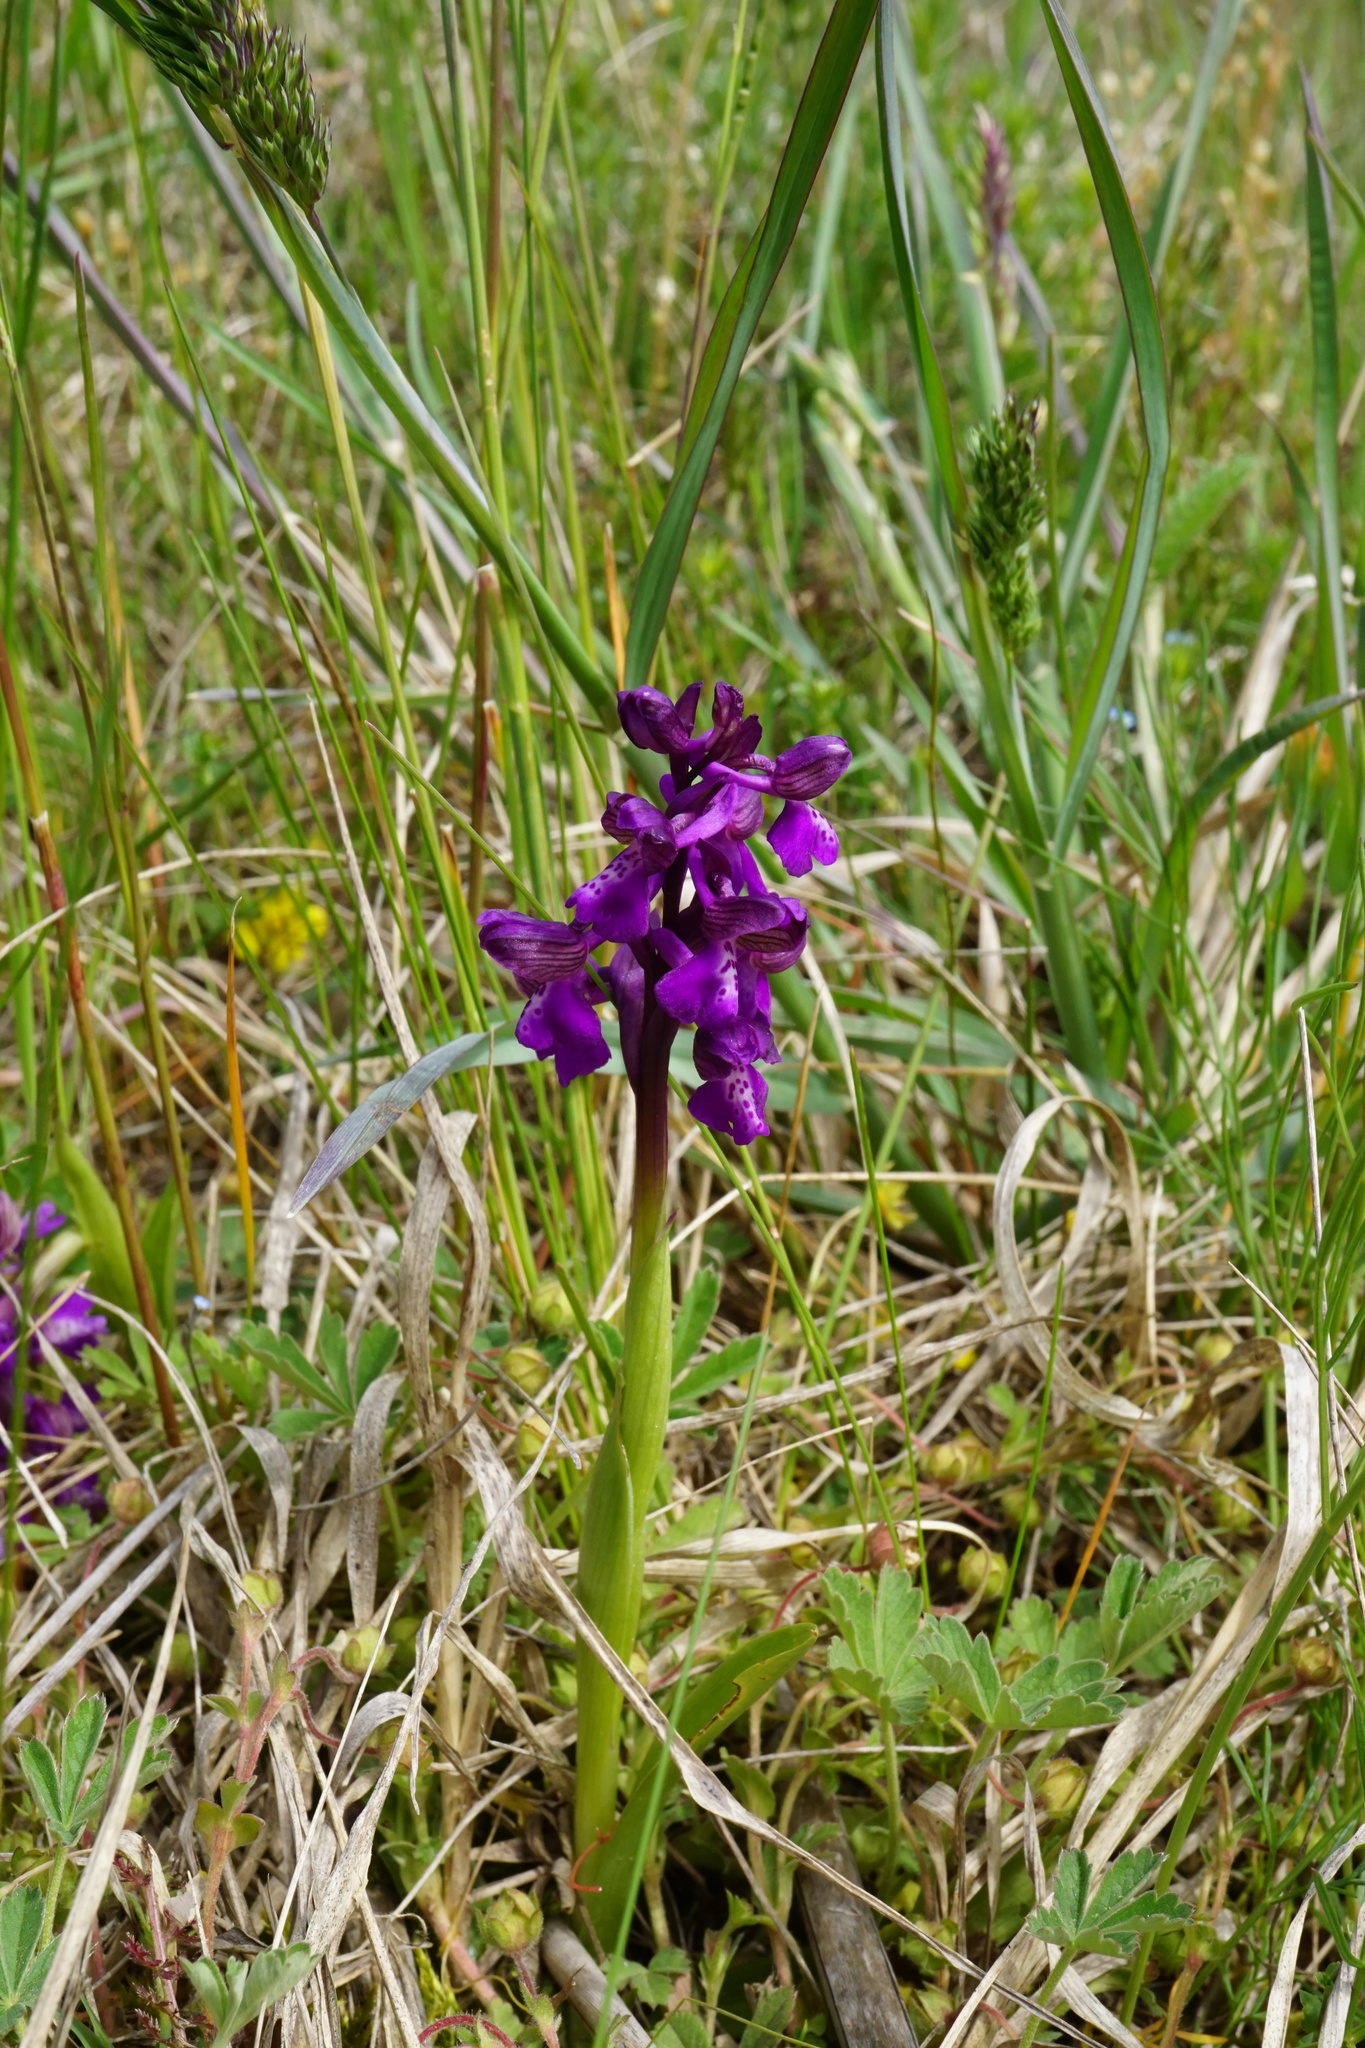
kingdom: Plantae
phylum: Tracheophyta
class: Liliopsida
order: Asparagales
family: Orchidaceae
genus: Anacamptis
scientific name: Anacamptis morio
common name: Green-winged orchid
